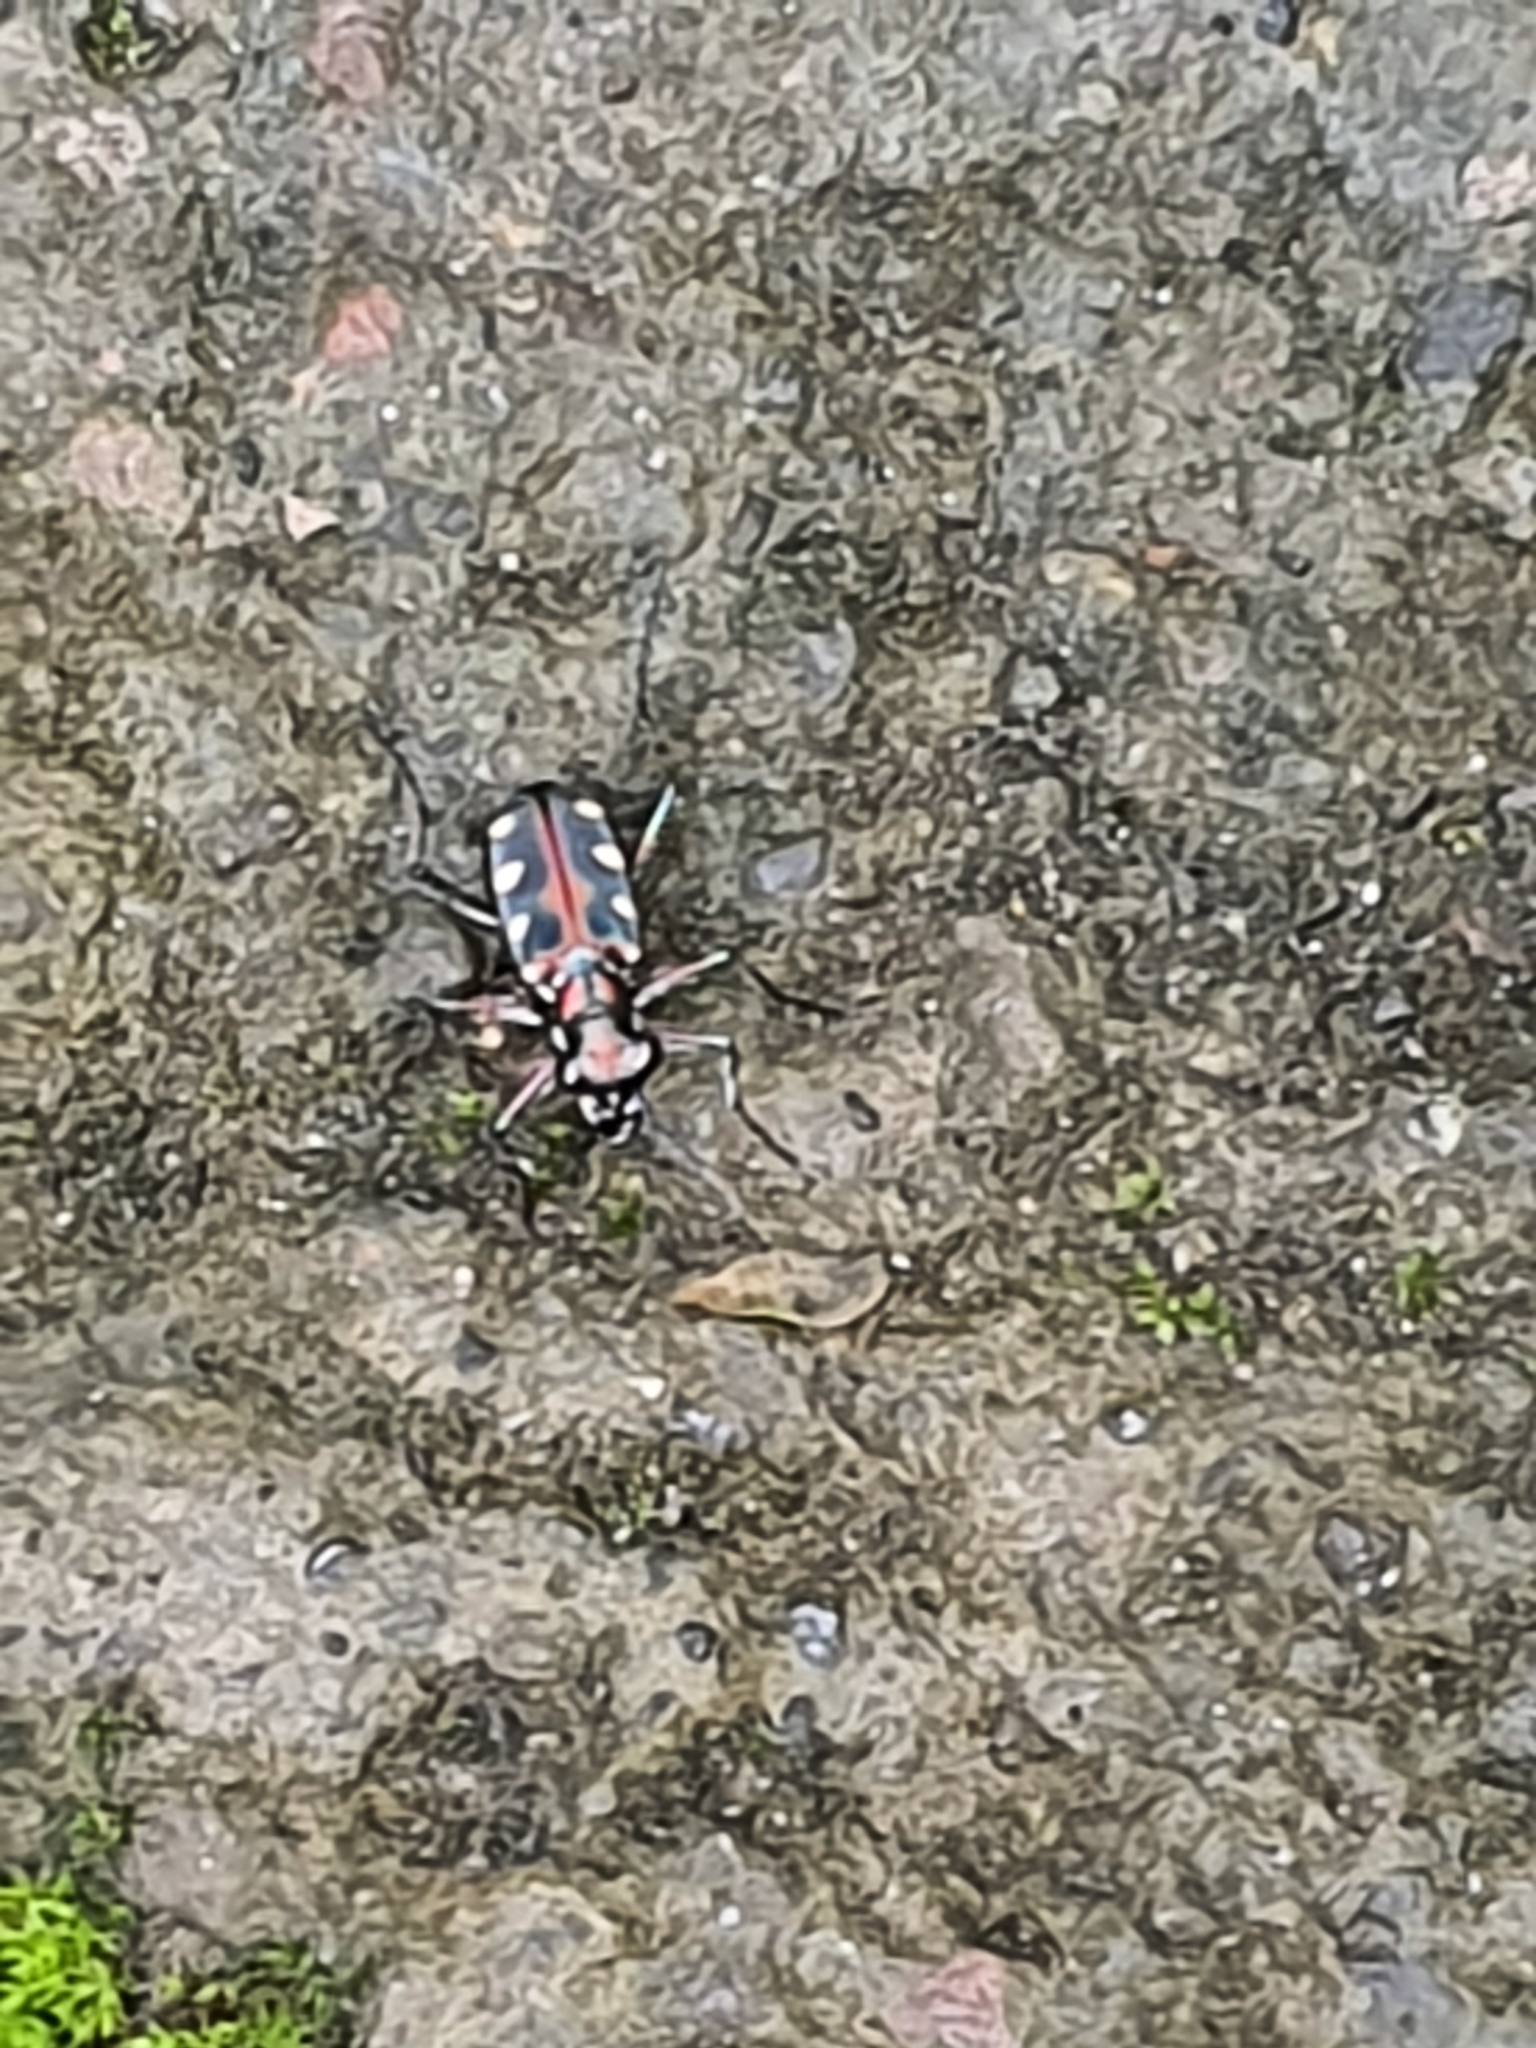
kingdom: Animalia
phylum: Arthropoda
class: Insecta
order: Coleoptera
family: Carabidae
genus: Cicindela
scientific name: Cicindela aurulenta
